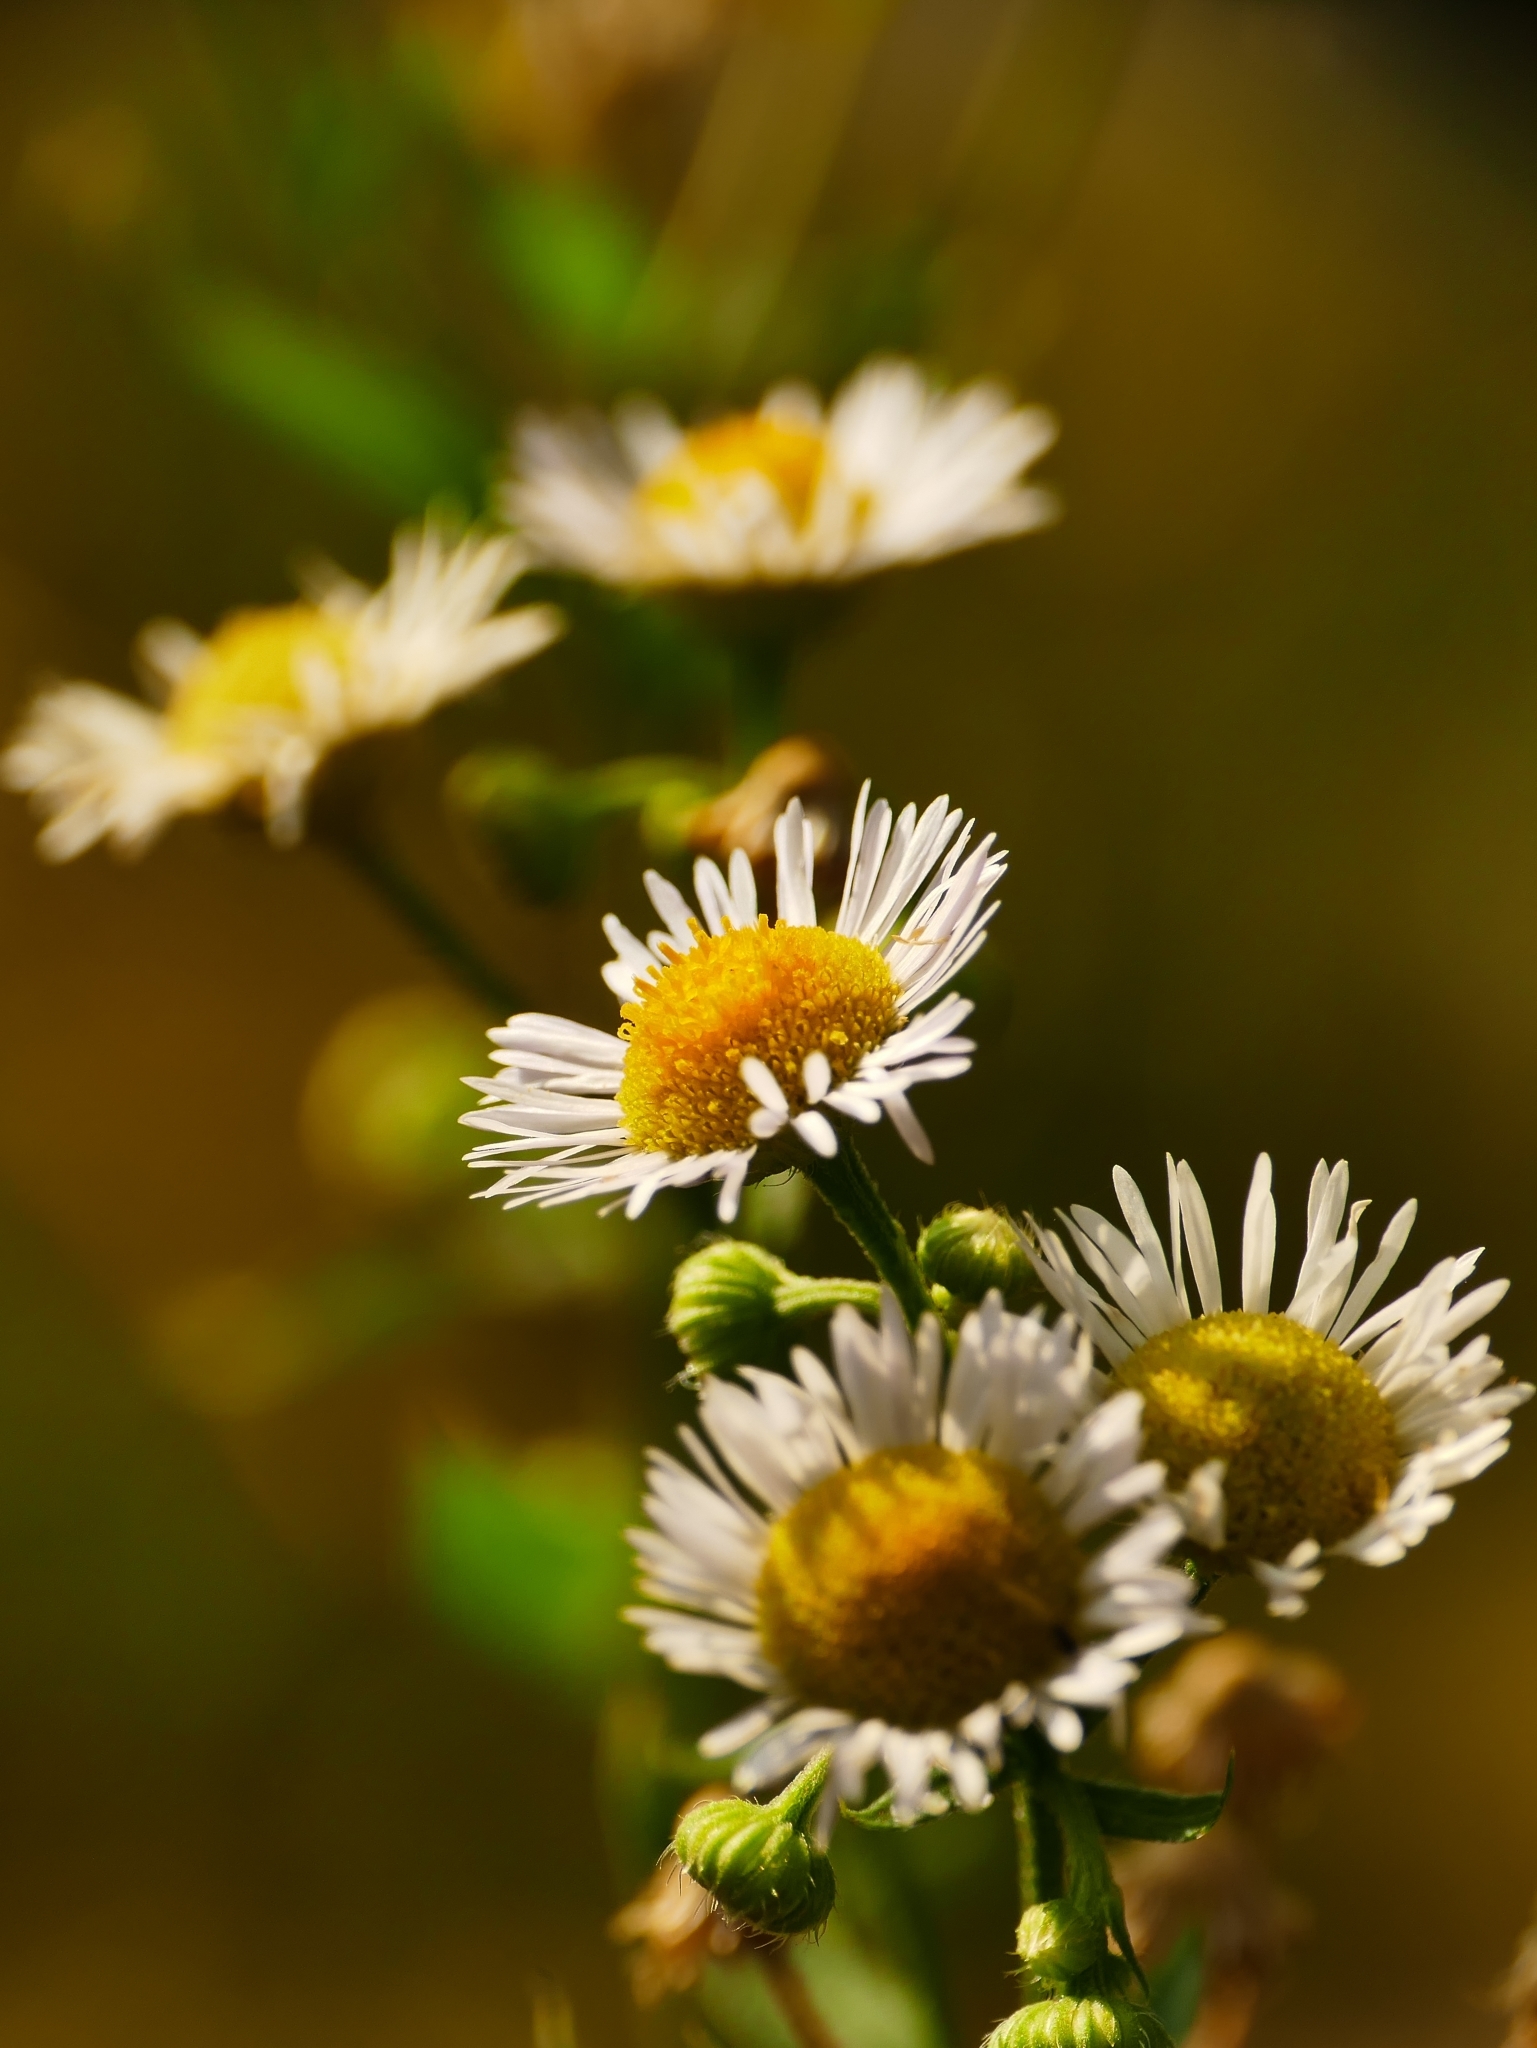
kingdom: Plantae
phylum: Tracheophyta
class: Magnoliopsida
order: Asterales
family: Asteraceae
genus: Erigeron
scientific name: Erigeron annuus
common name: Tall fleabane
